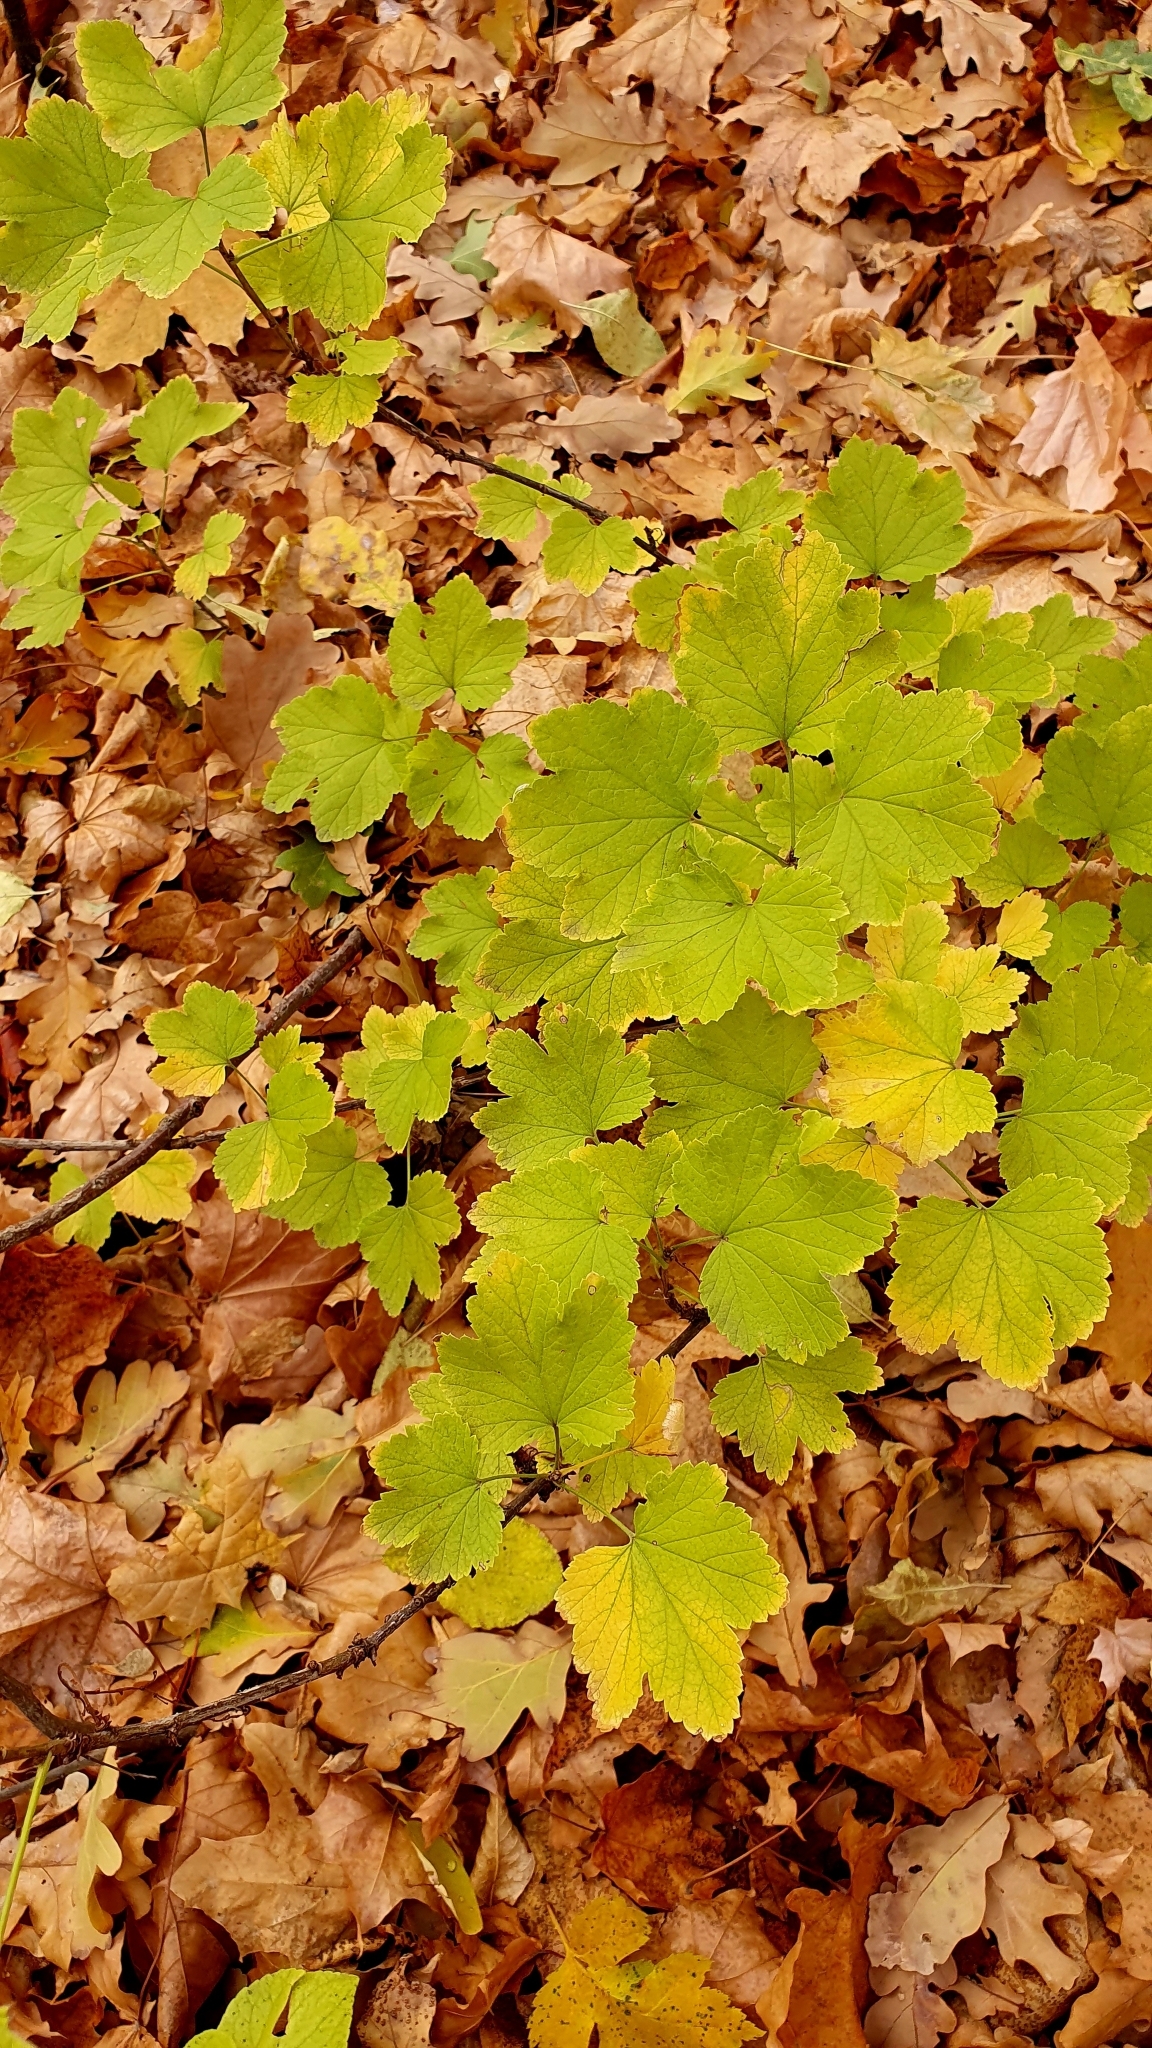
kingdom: Plantae
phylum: Tracheophyta
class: Magnoliopsida
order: Saxifragales
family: Grossulariaceae
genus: Ribes
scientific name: Ribes nigrum
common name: Black currant
